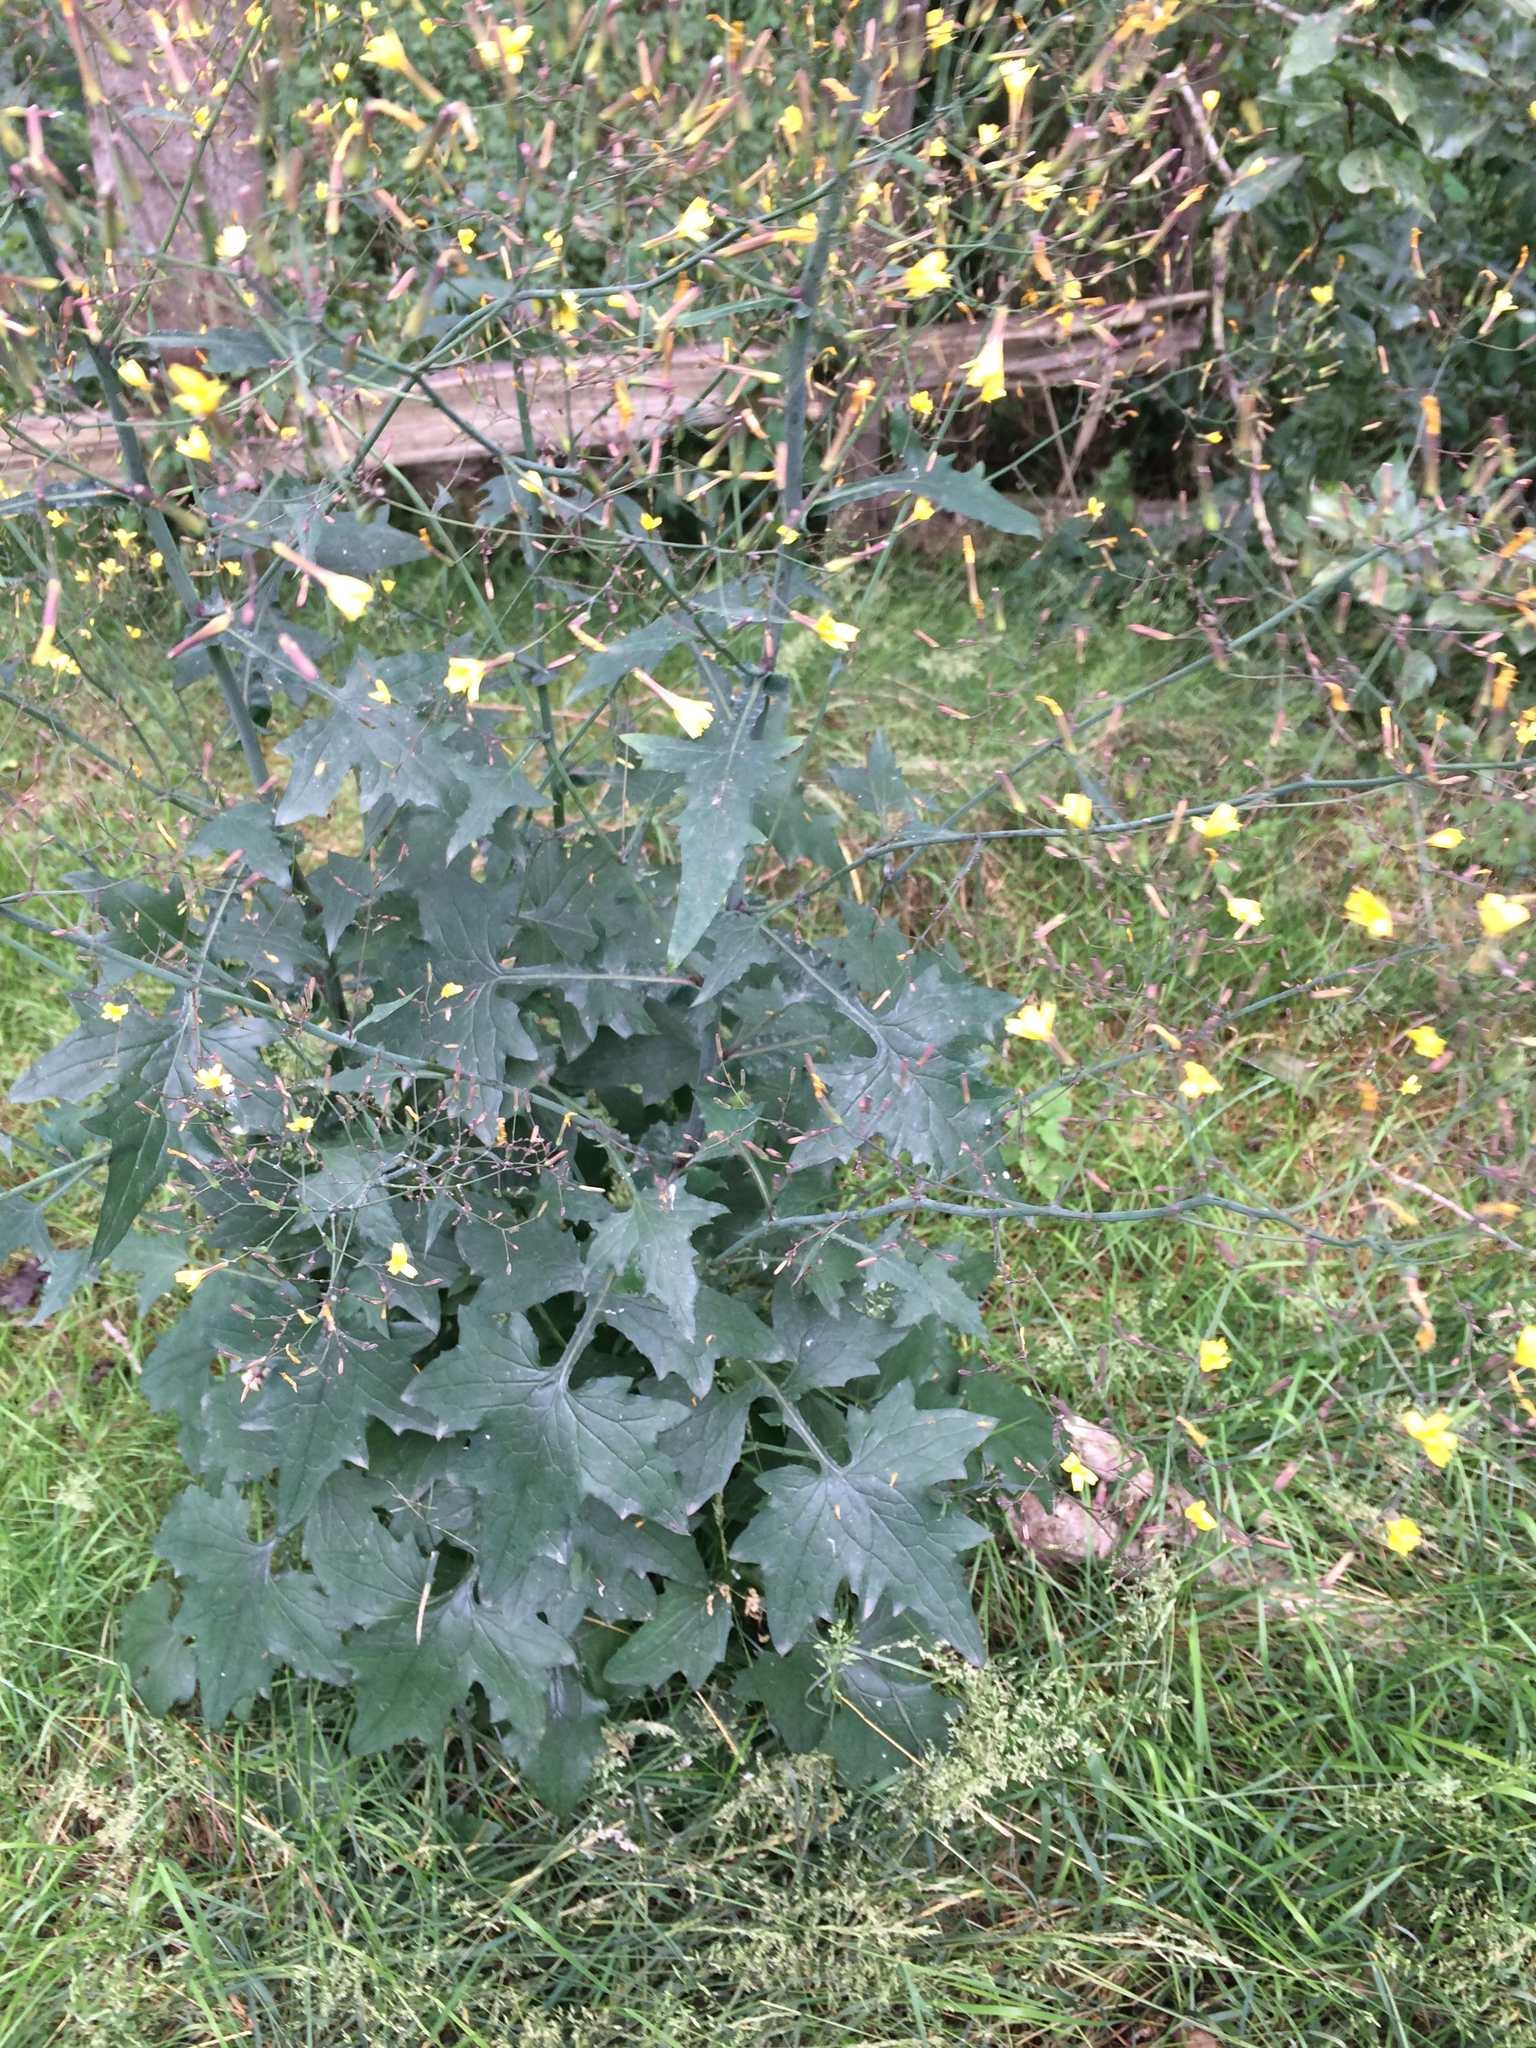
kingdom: Plantae
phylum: Tracheophyta
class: Magnoliopsida
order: Asterales
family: Asteraceae
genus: Mycelis
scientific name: Mycelis muralis
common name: Wall lettuce
